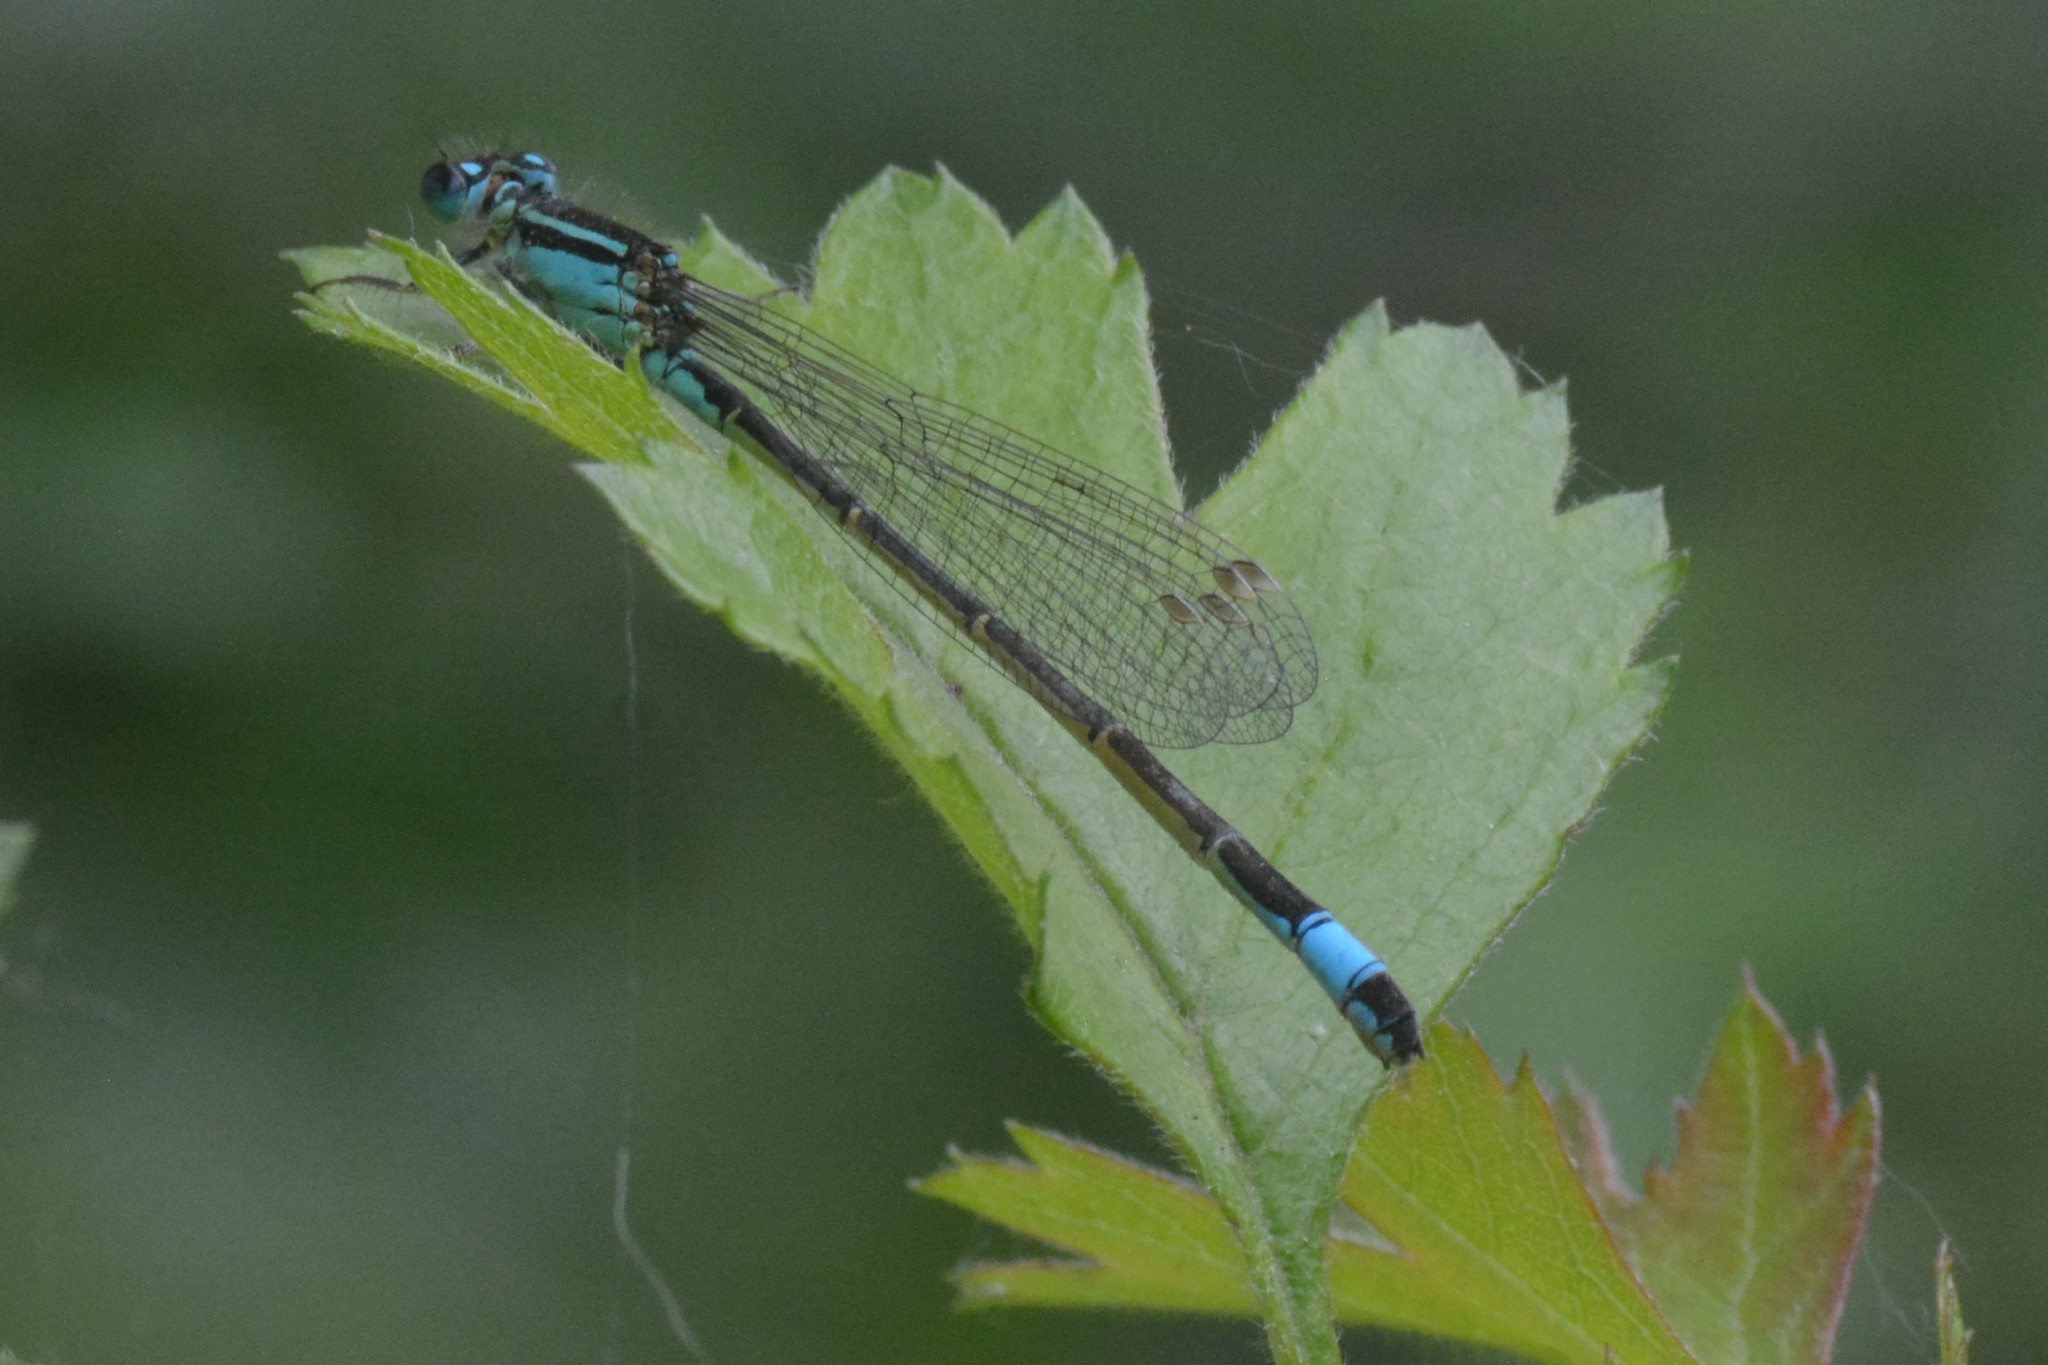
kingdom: Animalia
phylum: Arthropoda
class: Insecta
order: Odonata
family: Coenagrionidae
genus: Ischnura
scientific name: Ischnura elegans
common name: Blue-tailed damselfly
